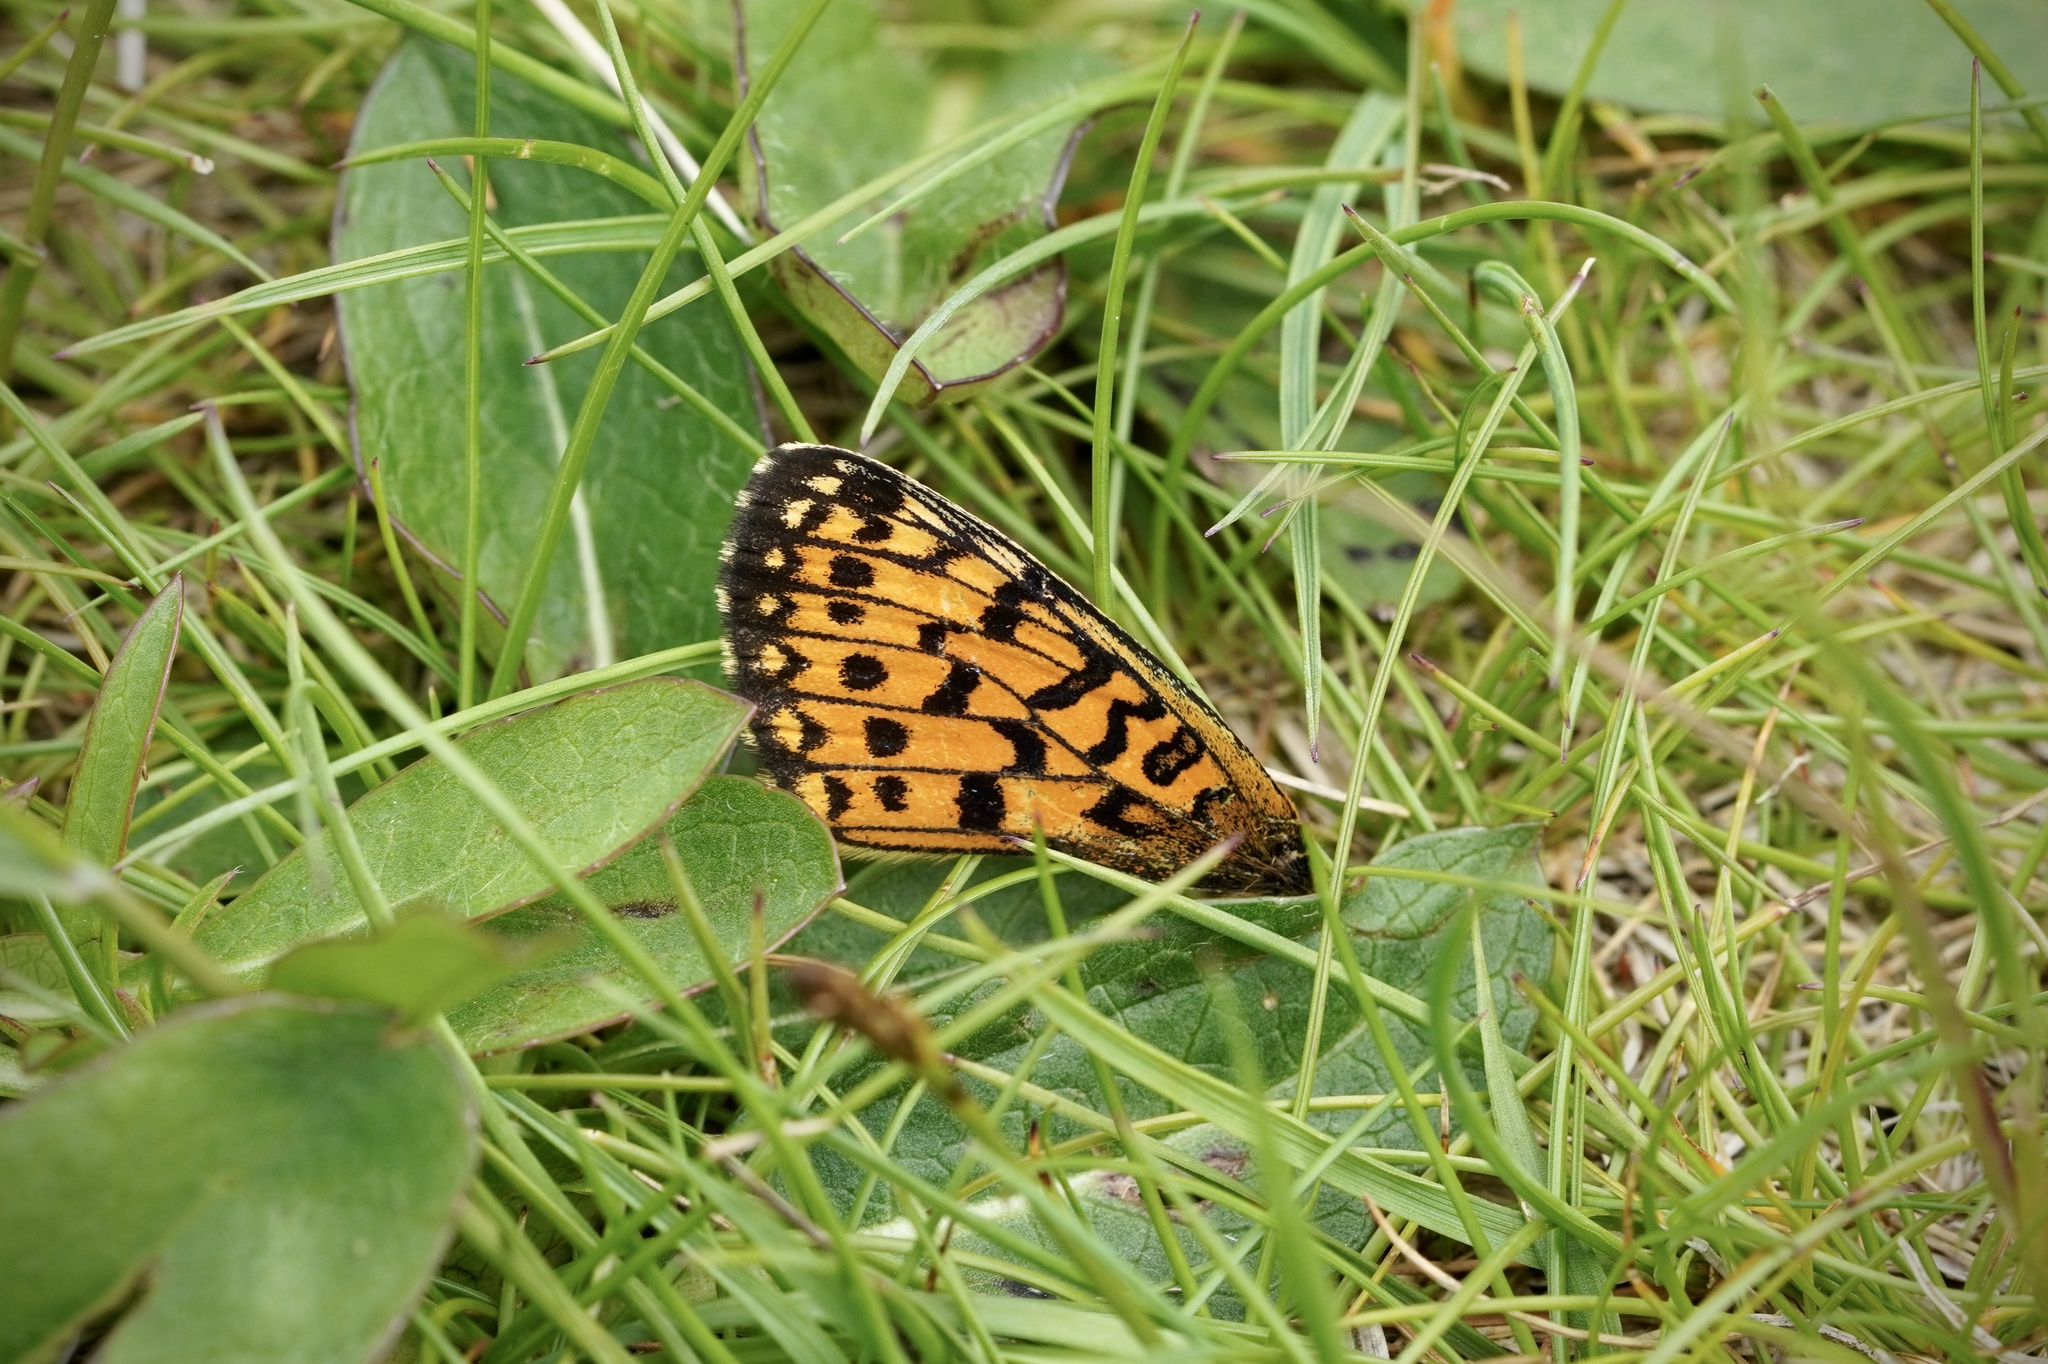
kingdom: Animalia
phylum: Arthropoda
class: Insecta
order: Lepidoptera
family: Nymphalidae
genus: Boloria
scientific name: Boloria selene
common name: Small pearl-bordered fritillary
